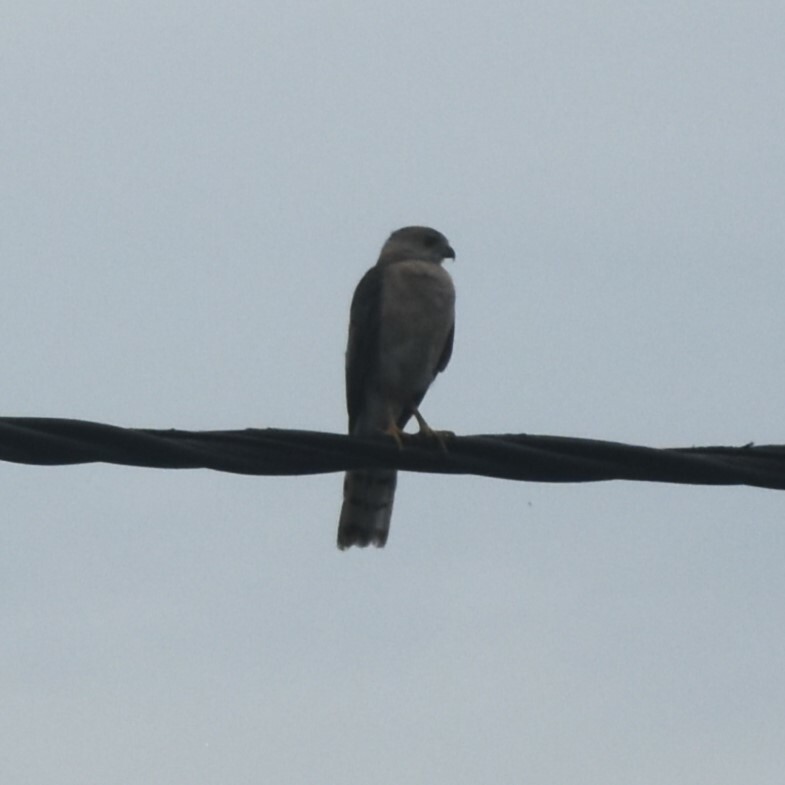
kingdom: Animalia
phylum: Chordata
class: Aves
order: Accipitriformes
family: Accipitridae
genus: Accipiter
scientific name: Accipiter badius
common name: Shikra
